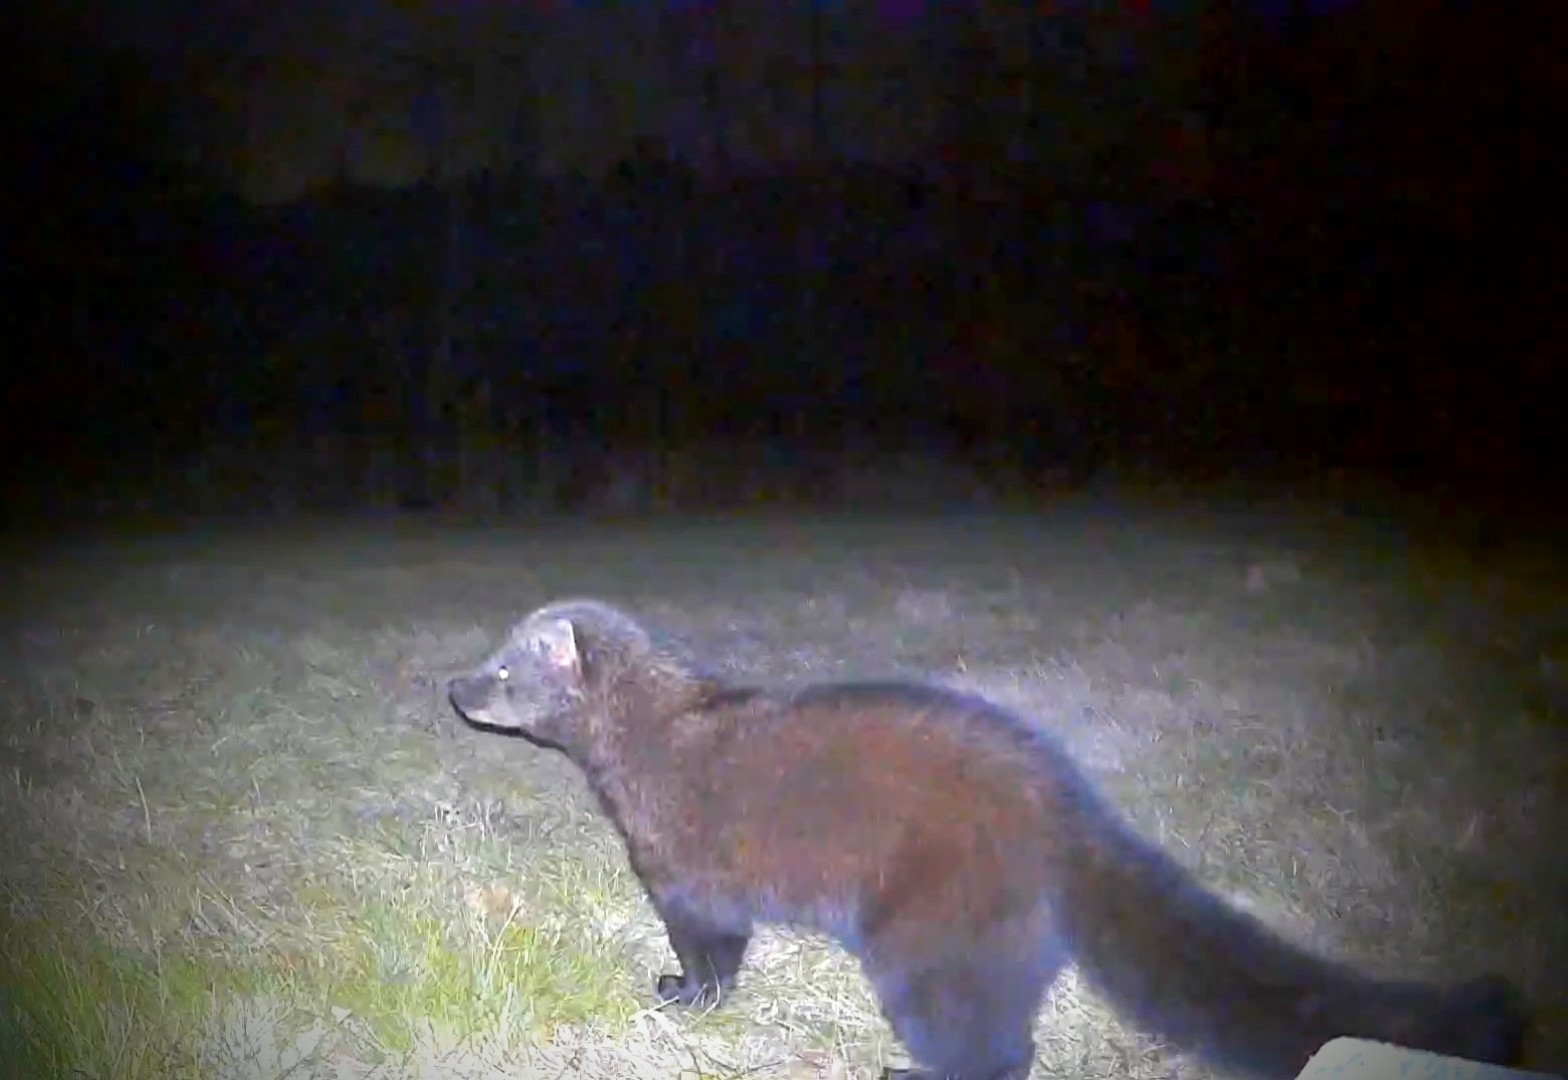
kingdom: Animalia
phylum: Chordata
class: Mammalia
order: Carnivora
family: Mustelidae
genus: Pekania
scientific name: Pekania pennanti
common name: Fisher
